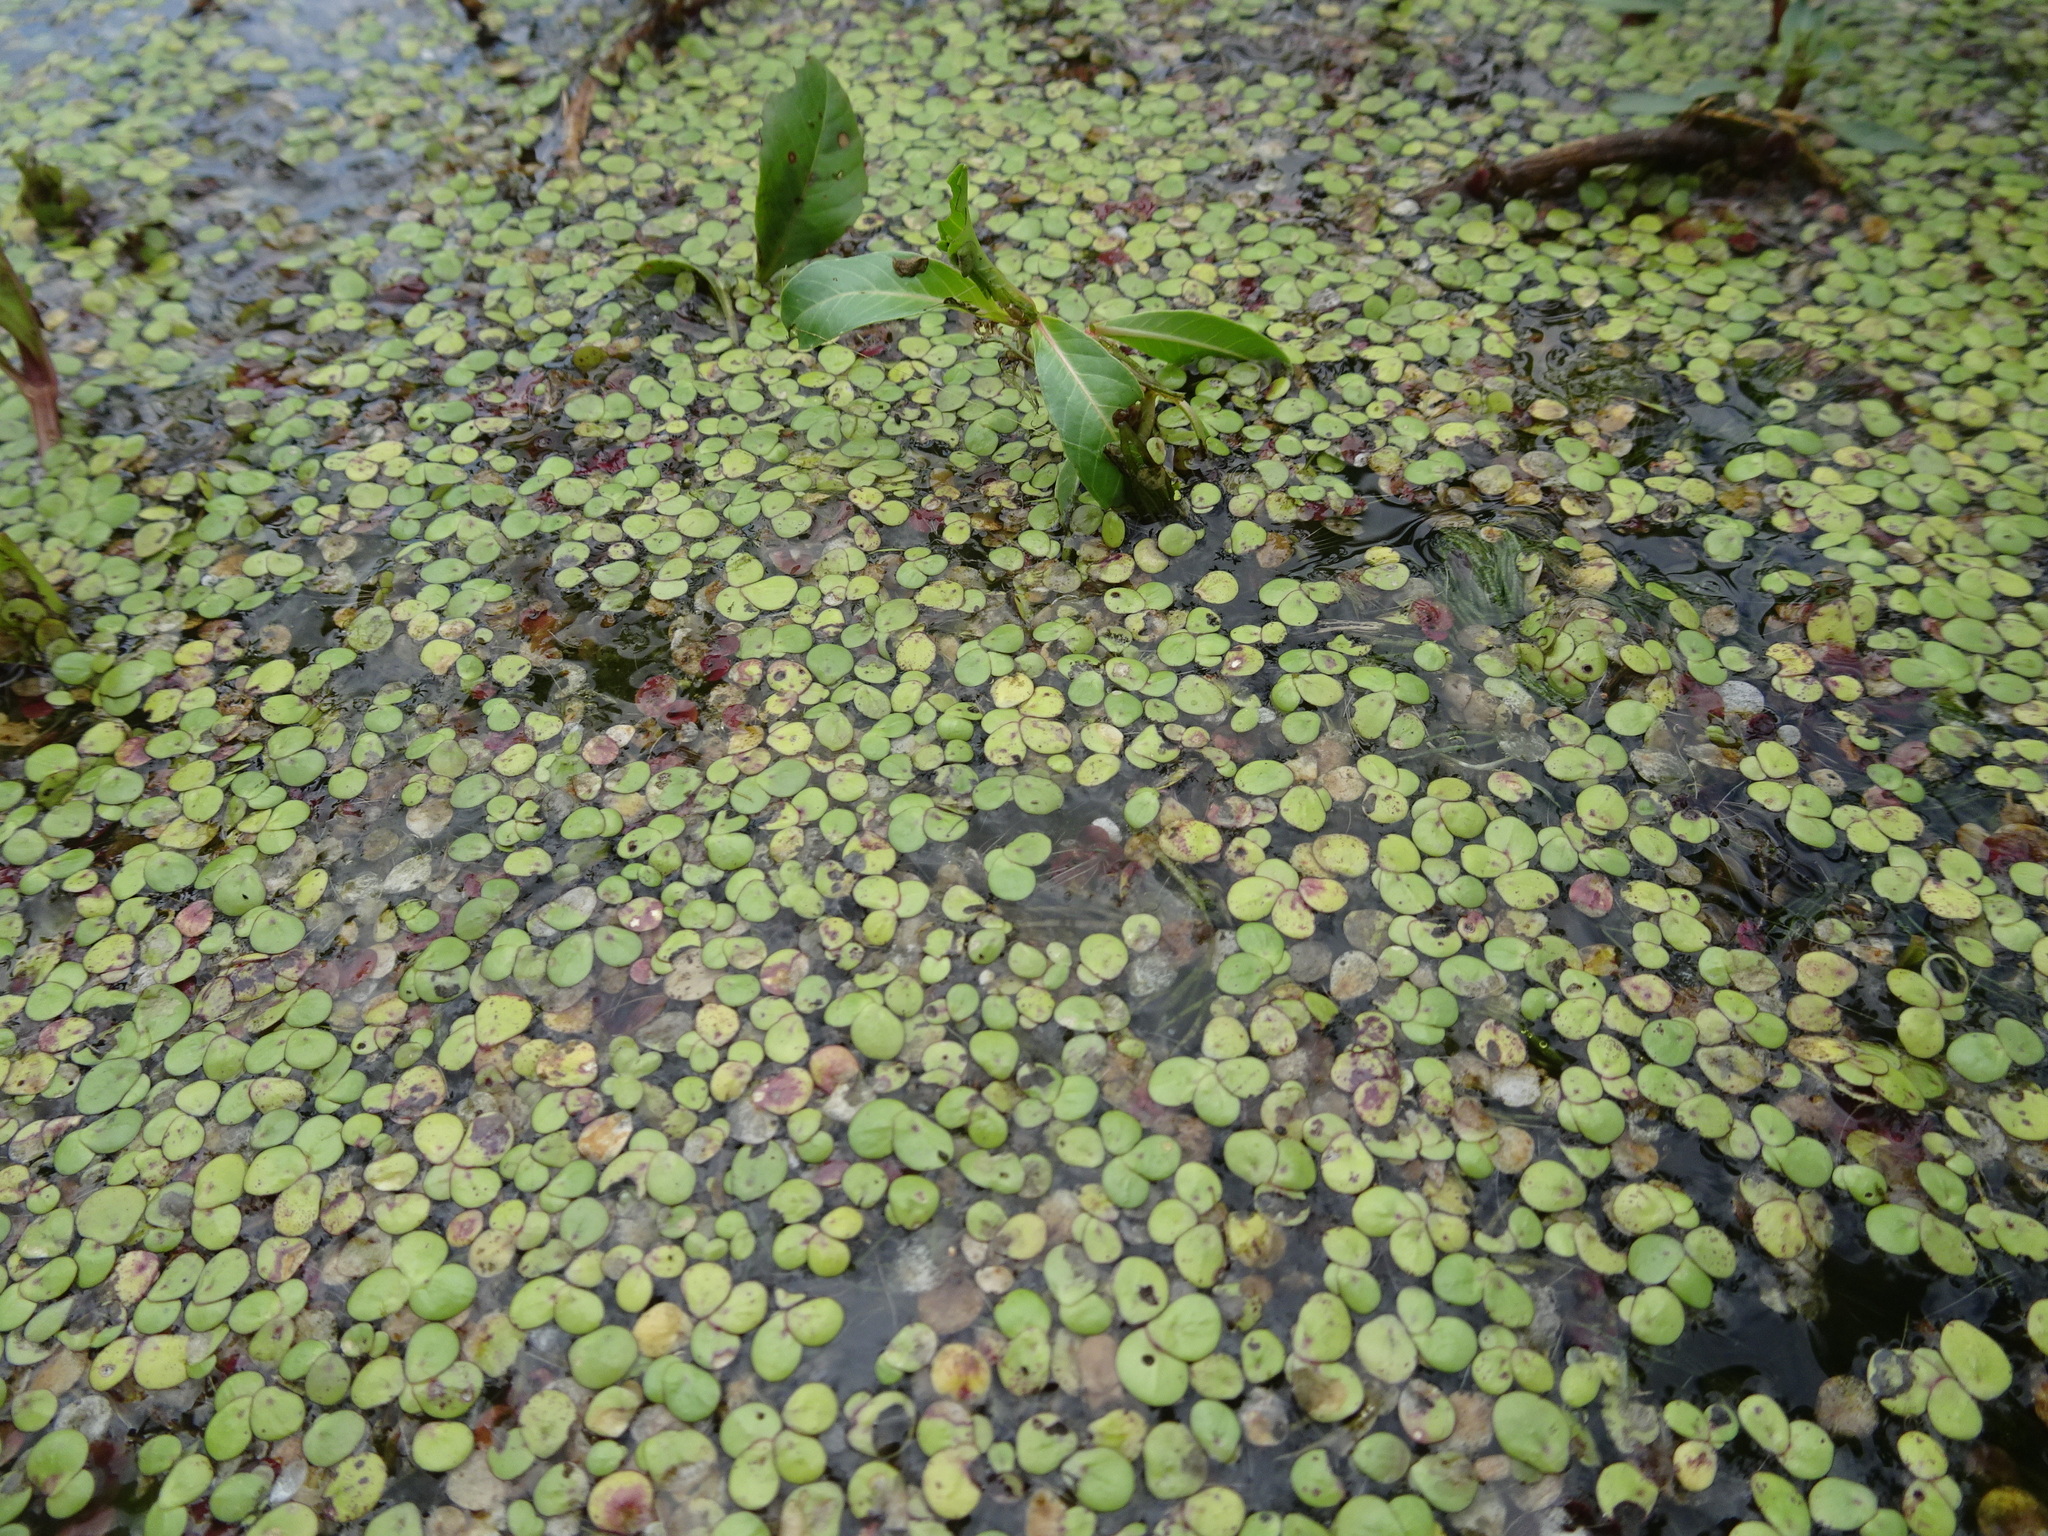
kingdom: Plantae
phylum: Tracheophyta
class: Liliopsida
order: Alismatales
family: Araceae
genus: Spirodela
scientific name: Spirodela polyrhiza
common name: Great duckweed
